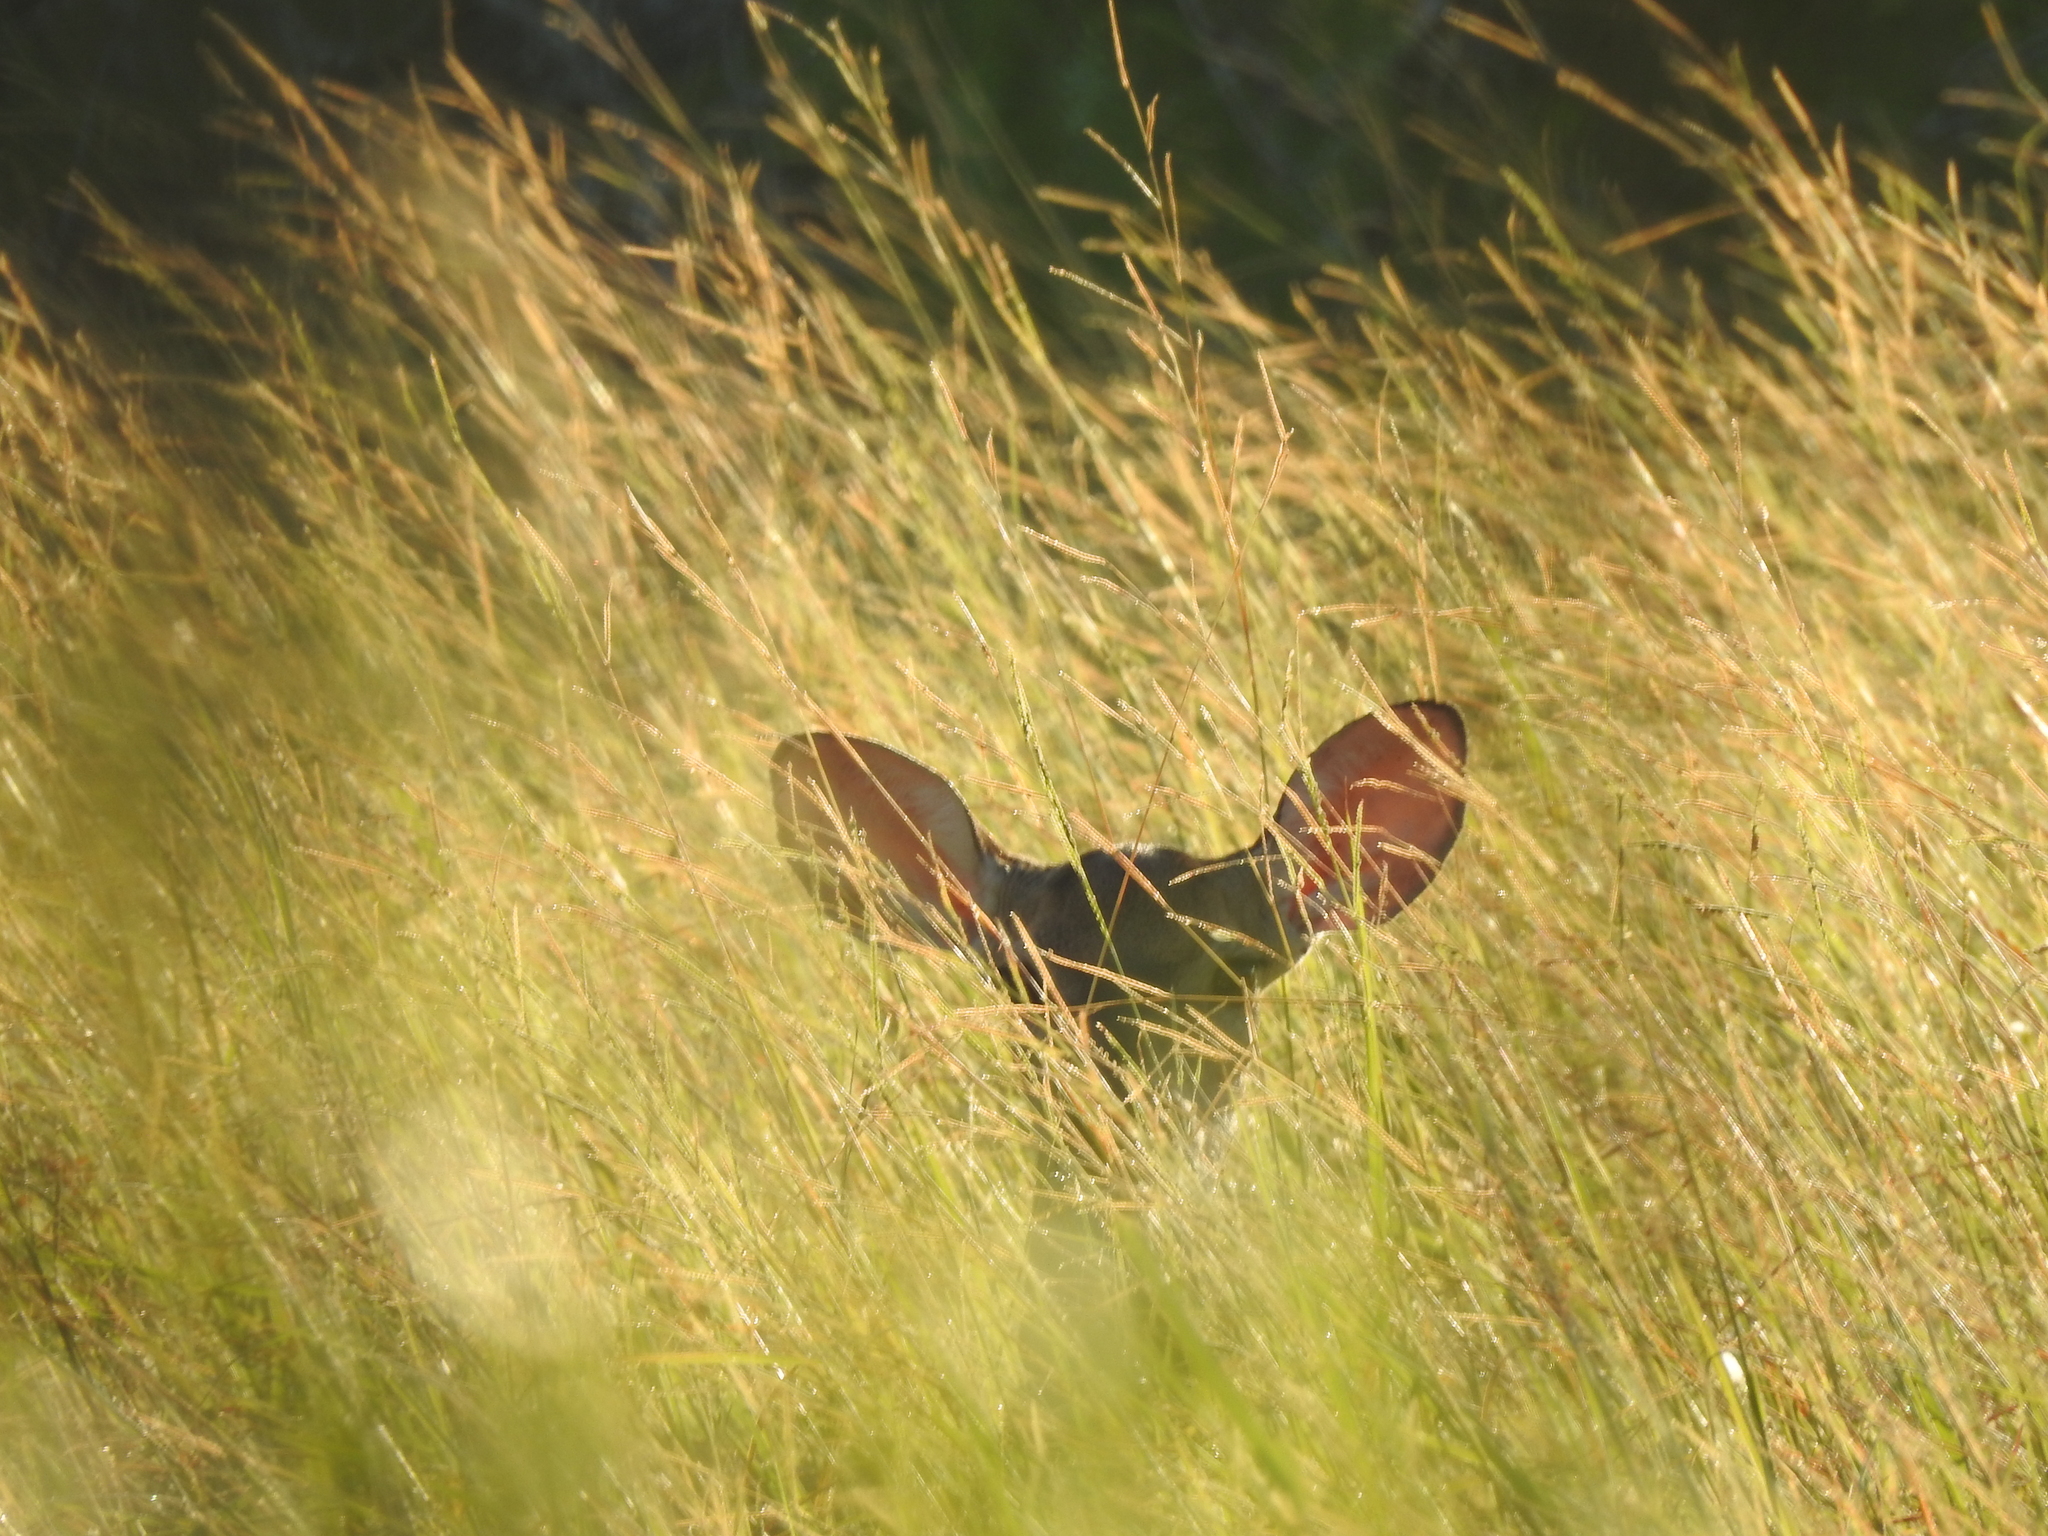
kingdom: Animalia
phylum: Chordata
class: Mammalia
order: Artiodactyla
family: Cervidae
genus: Odocoileus
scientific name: Odocoileus virginianus
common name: White-tailed deer
